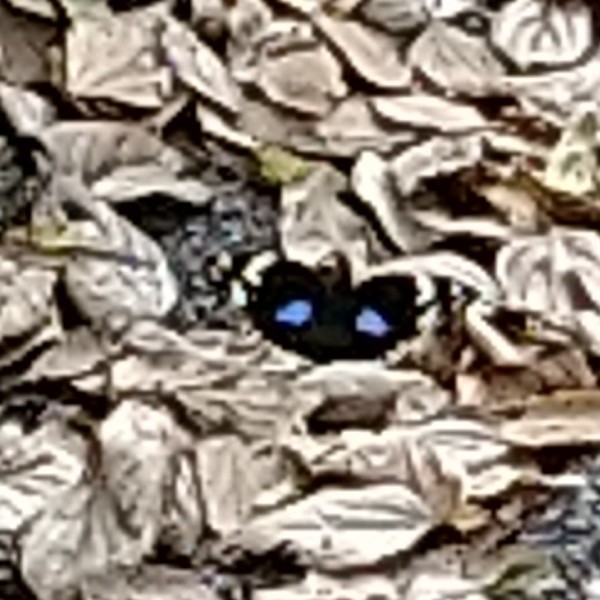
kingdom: Animalia
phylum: Arthropoda
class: Insecta
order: Lepidoptera
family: Nymphalidae
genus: Junonia
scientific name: Junonia oenone
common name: Dark blue pansy
